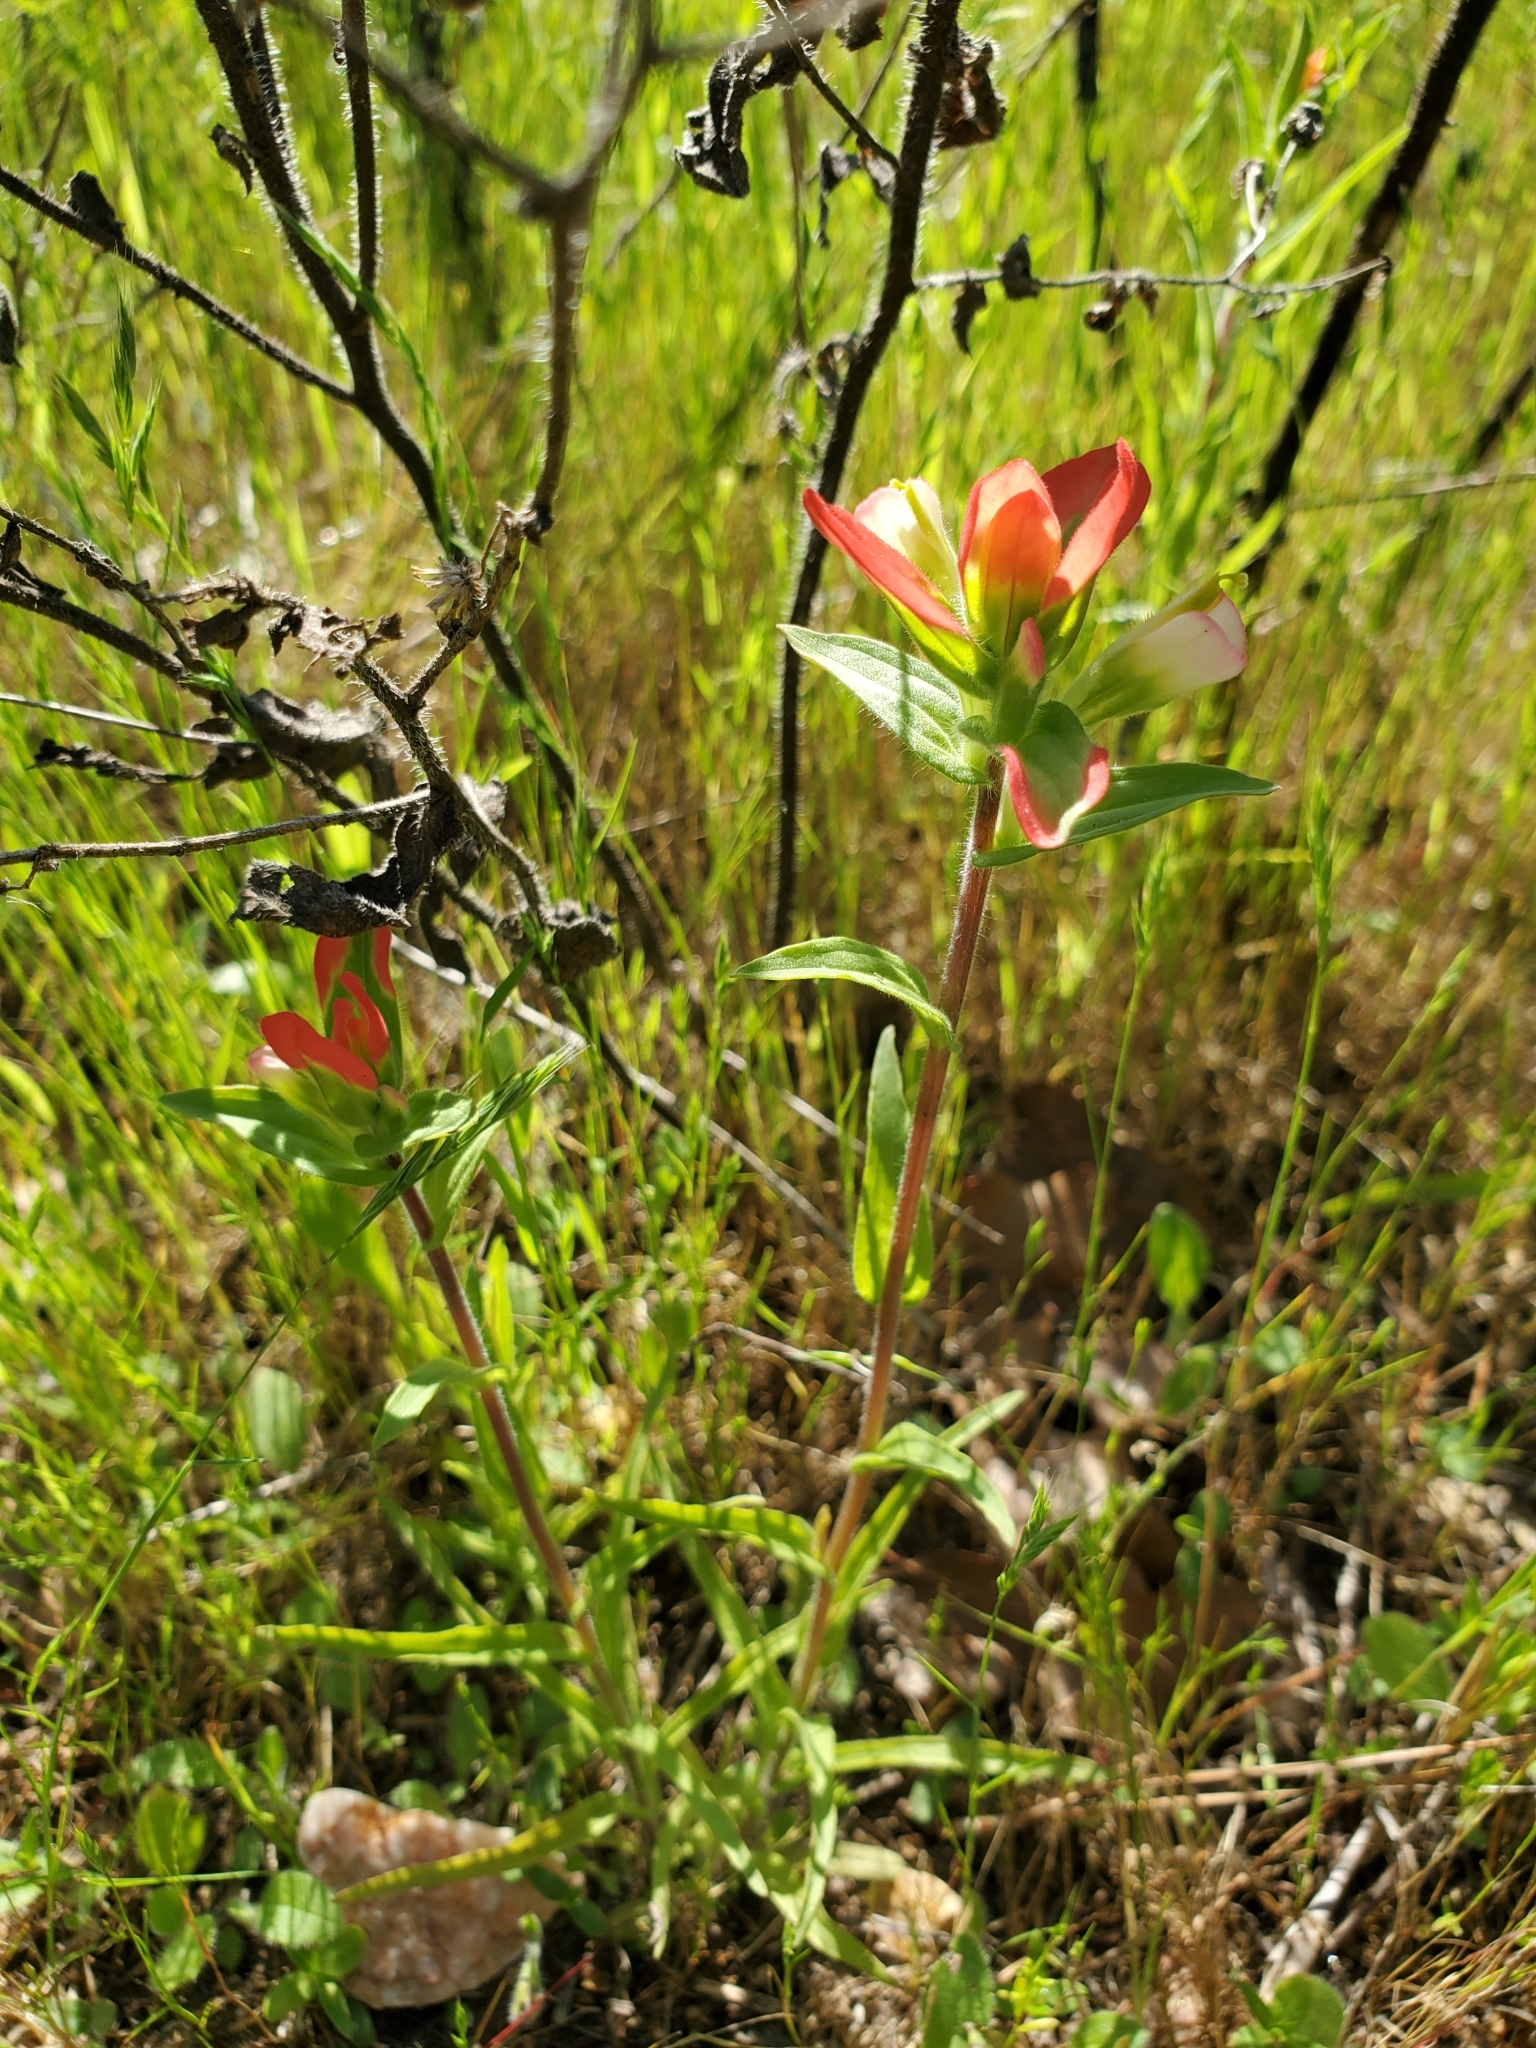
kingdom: Plantae
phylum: Tracheophyta
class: Magnoliopsida
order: Lamiales
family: Orobanchaceae
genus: Castilleja
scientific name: Castilleja indivisa
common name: Texas paintbrush
